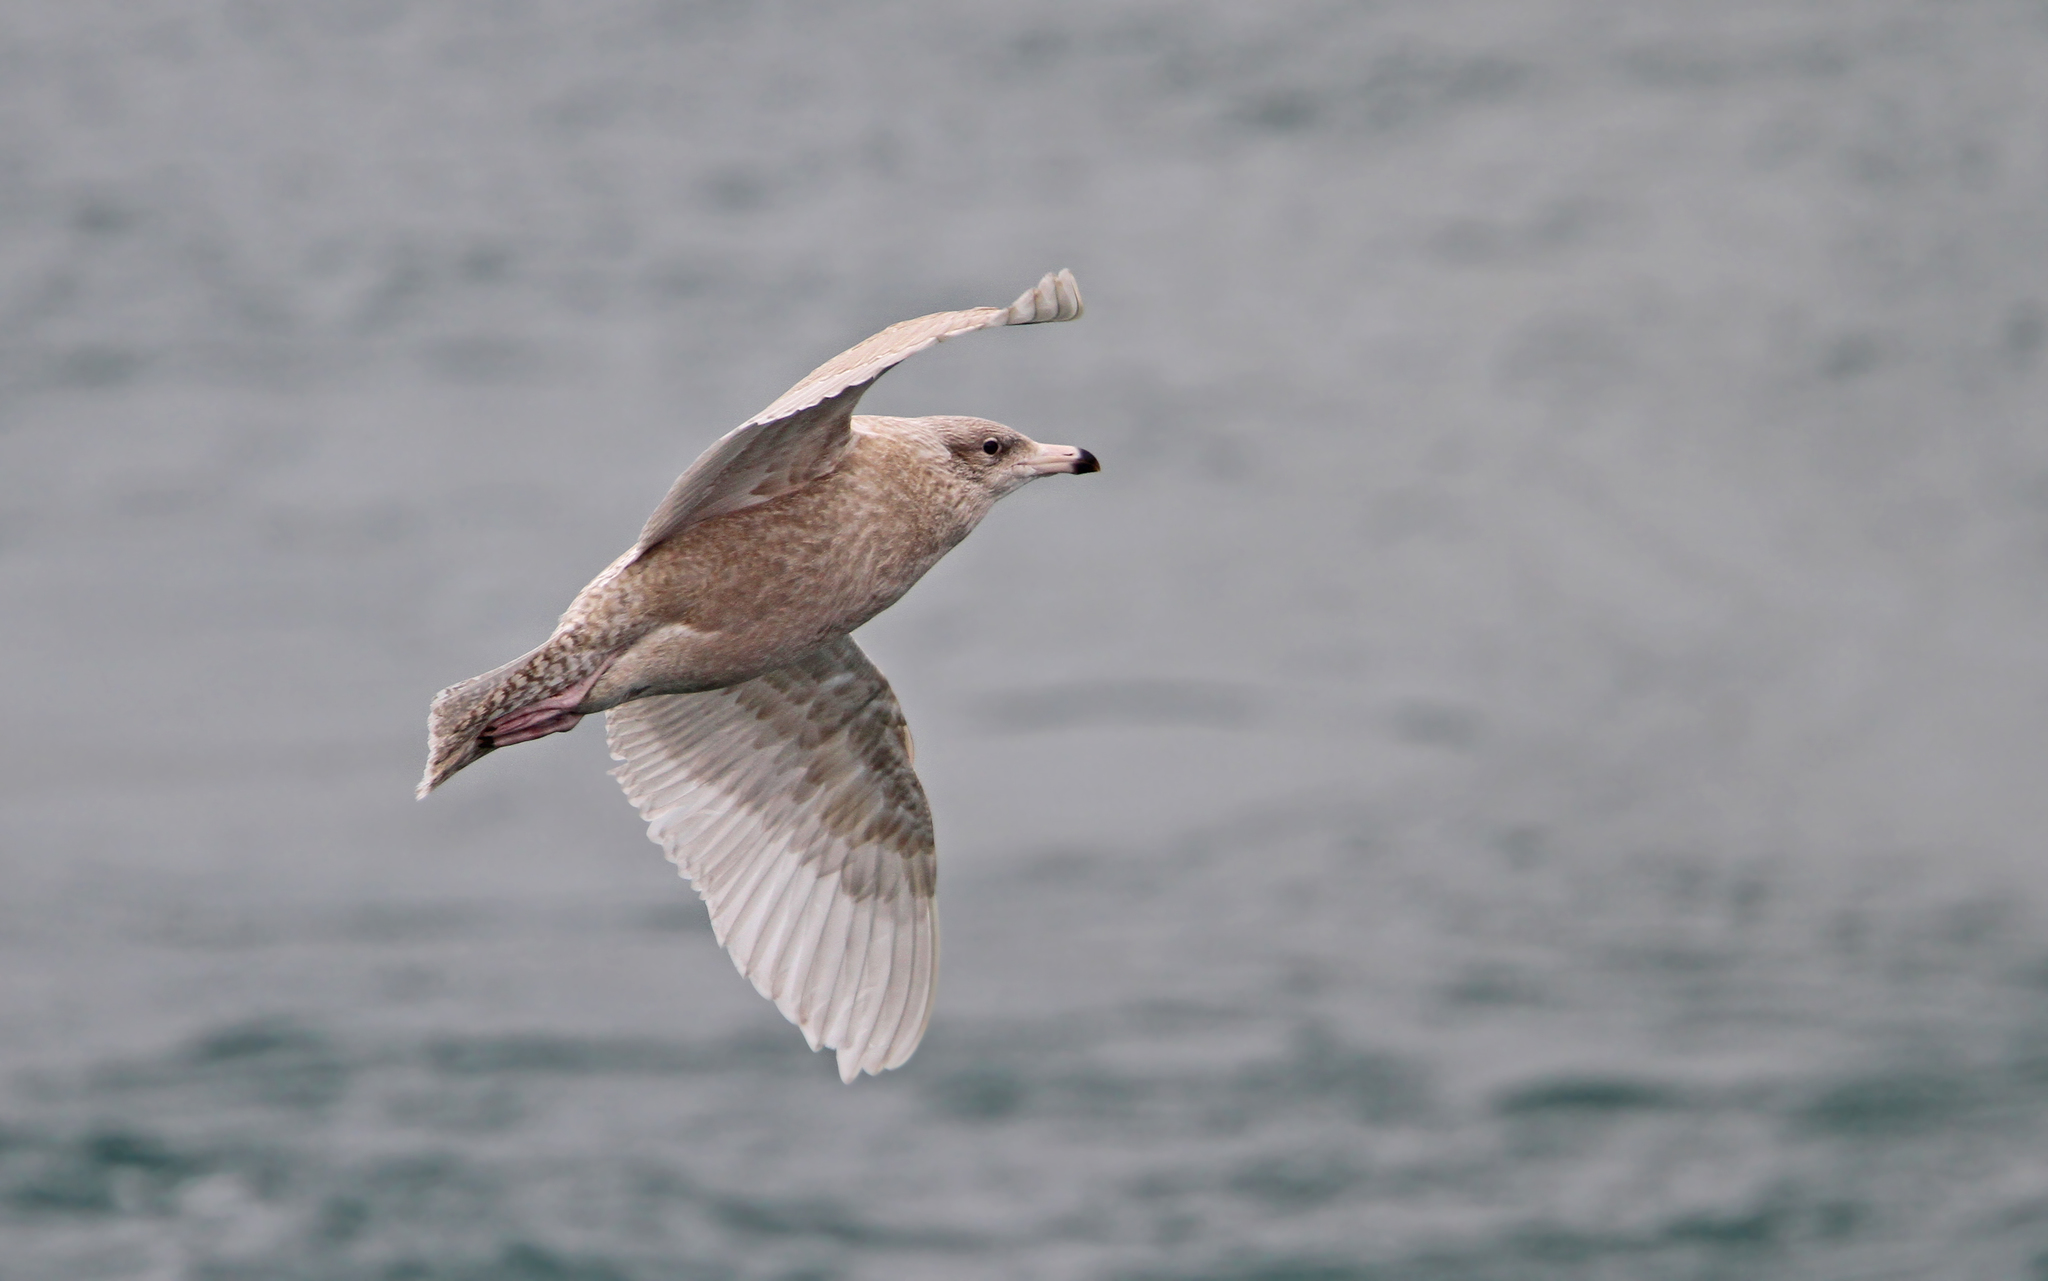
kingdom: Animalia
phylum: Chordata
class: Aves
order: Charadriiformes
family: Laridae
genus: Larus
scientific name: Larus hyperboreus
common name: Glaucous gull
